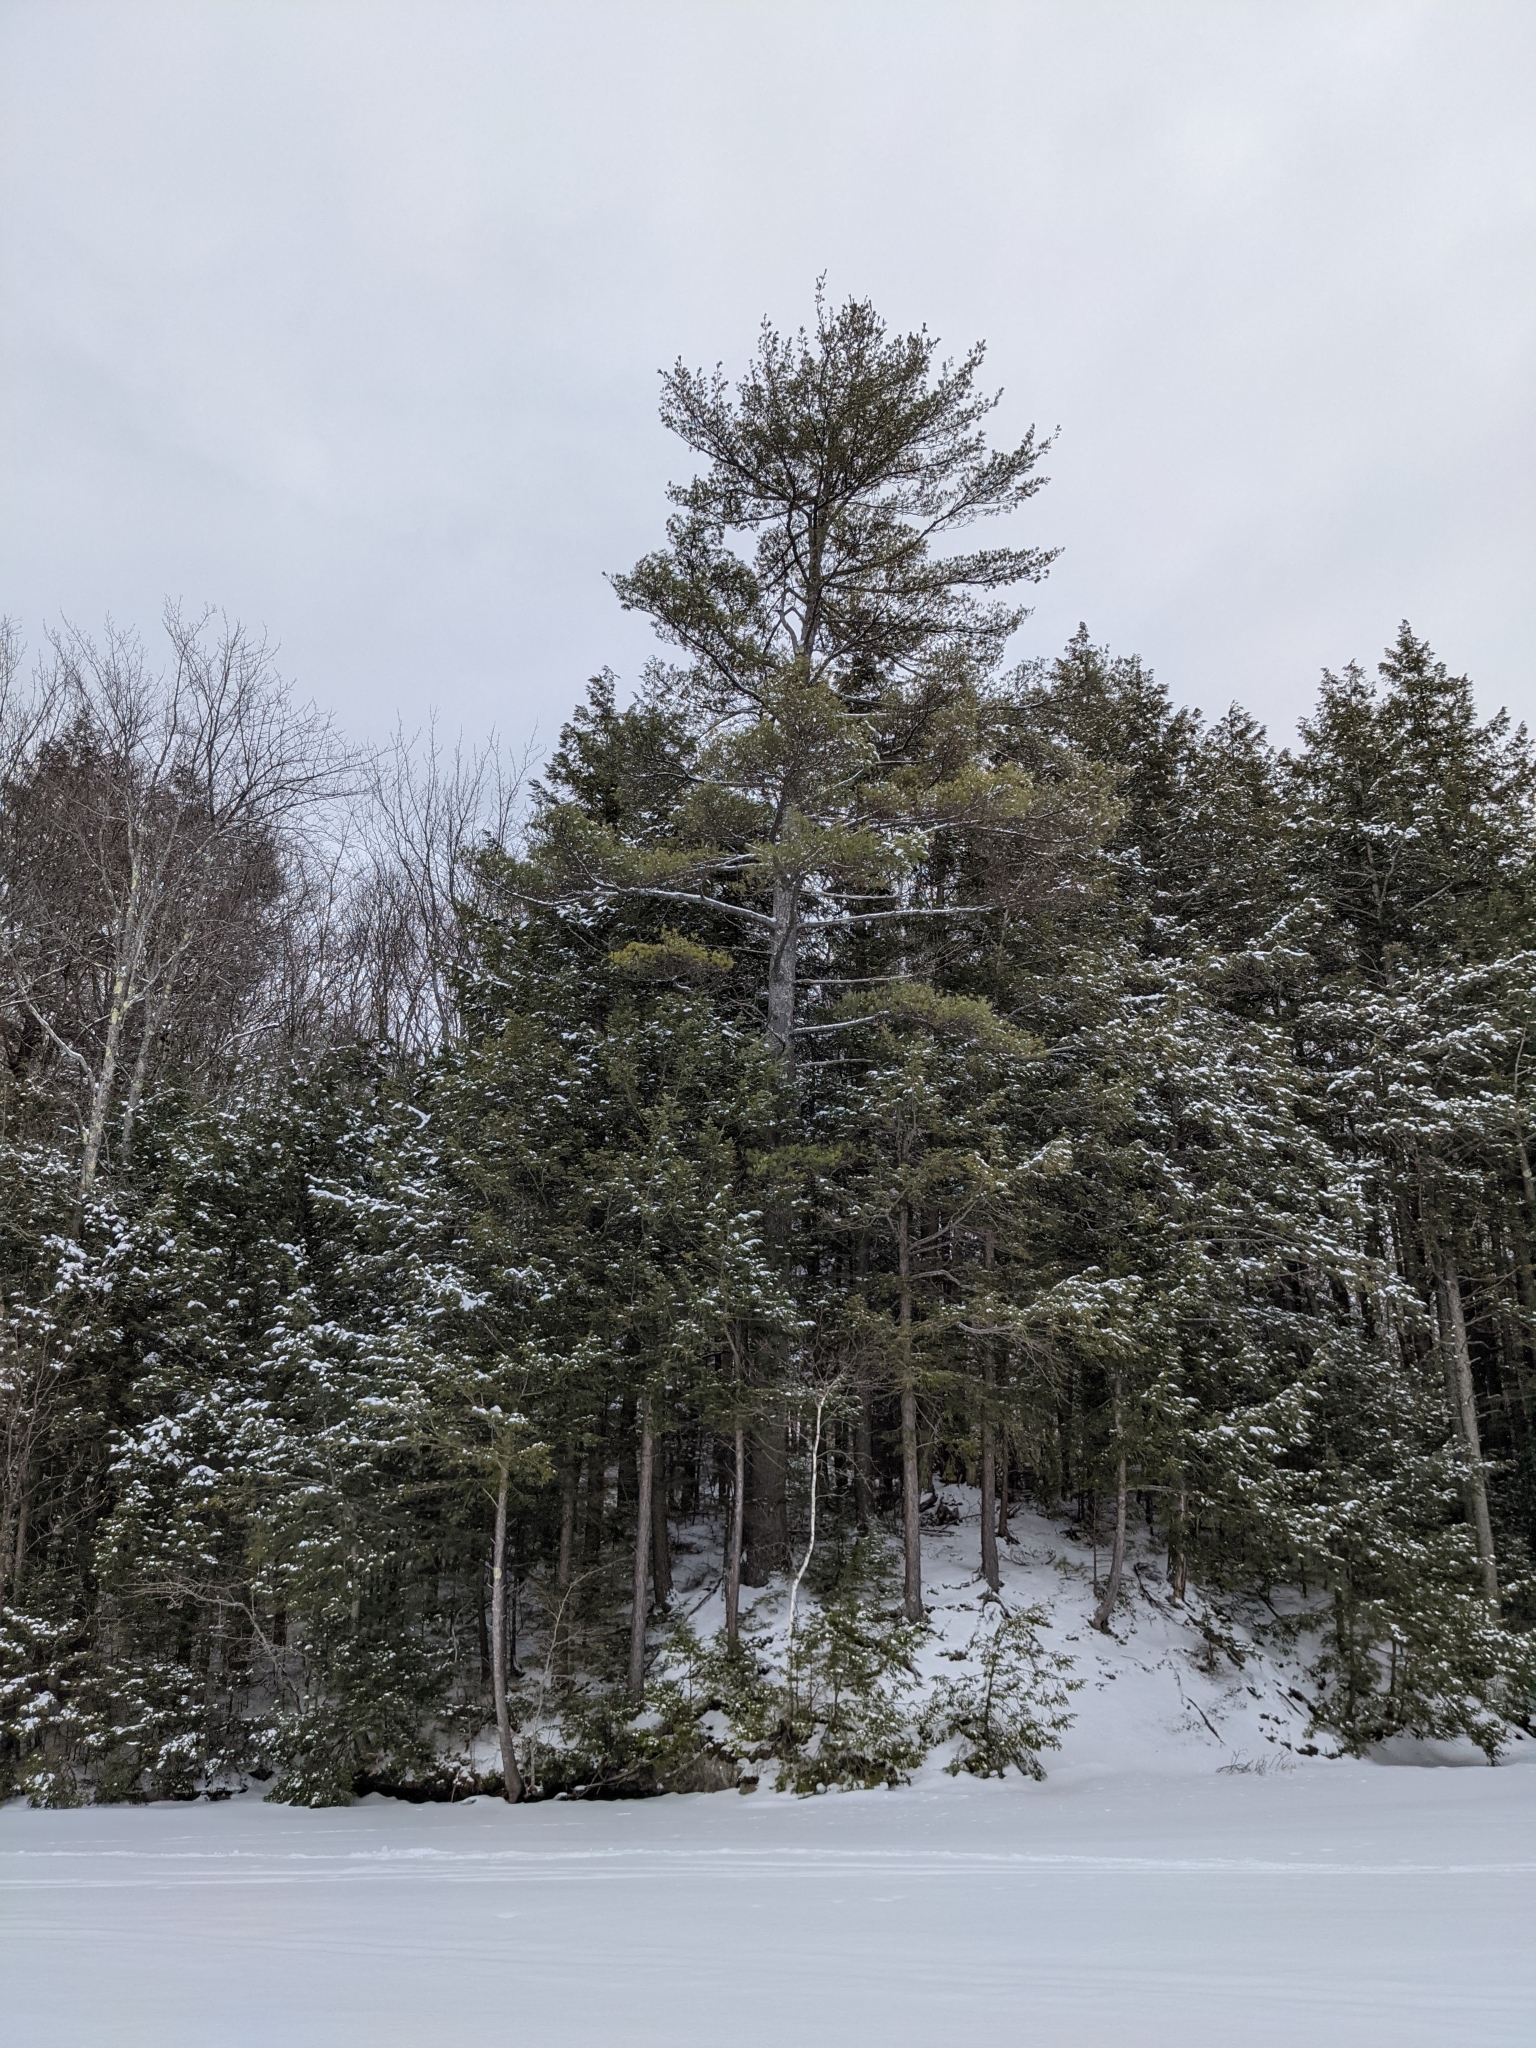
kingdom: Plantae
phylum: Tracheophyta
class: Pinopsida
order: Pinales
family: Pinaceae
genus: Pinus
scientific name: Pinus strobus
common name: Weymouth pine
